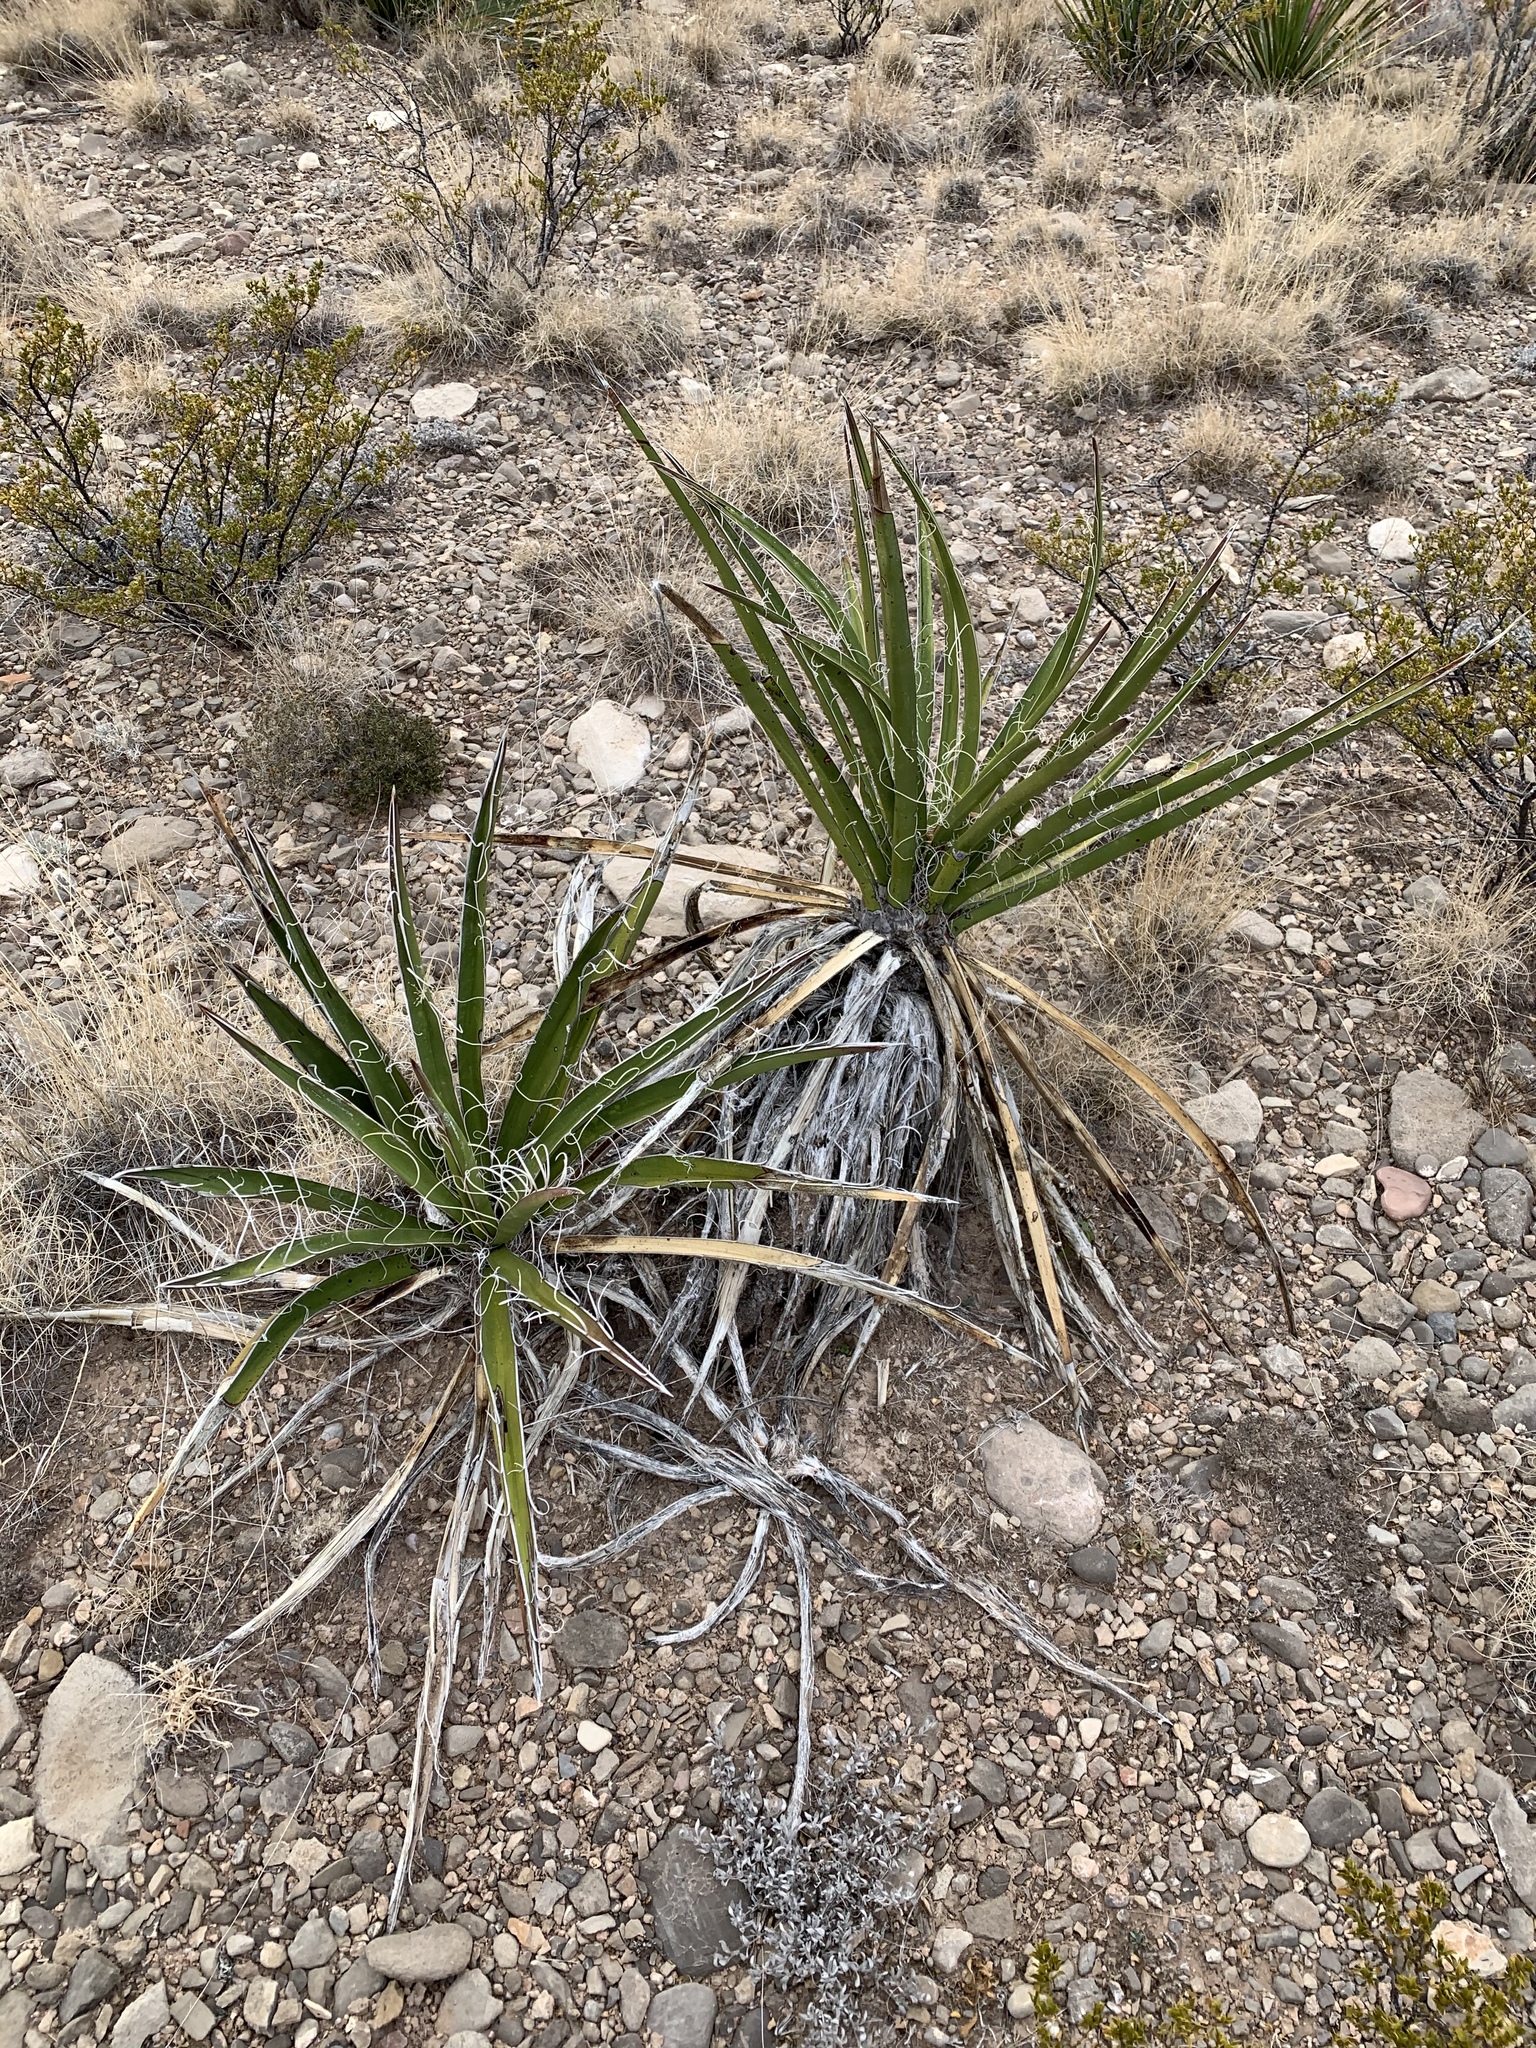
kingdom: Plantae
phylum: Tracheophyta
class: Liliopsida
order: Asparagales
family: Asparagaceae
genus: Yucca
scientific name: Yucca baccata
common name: Banana yucca
